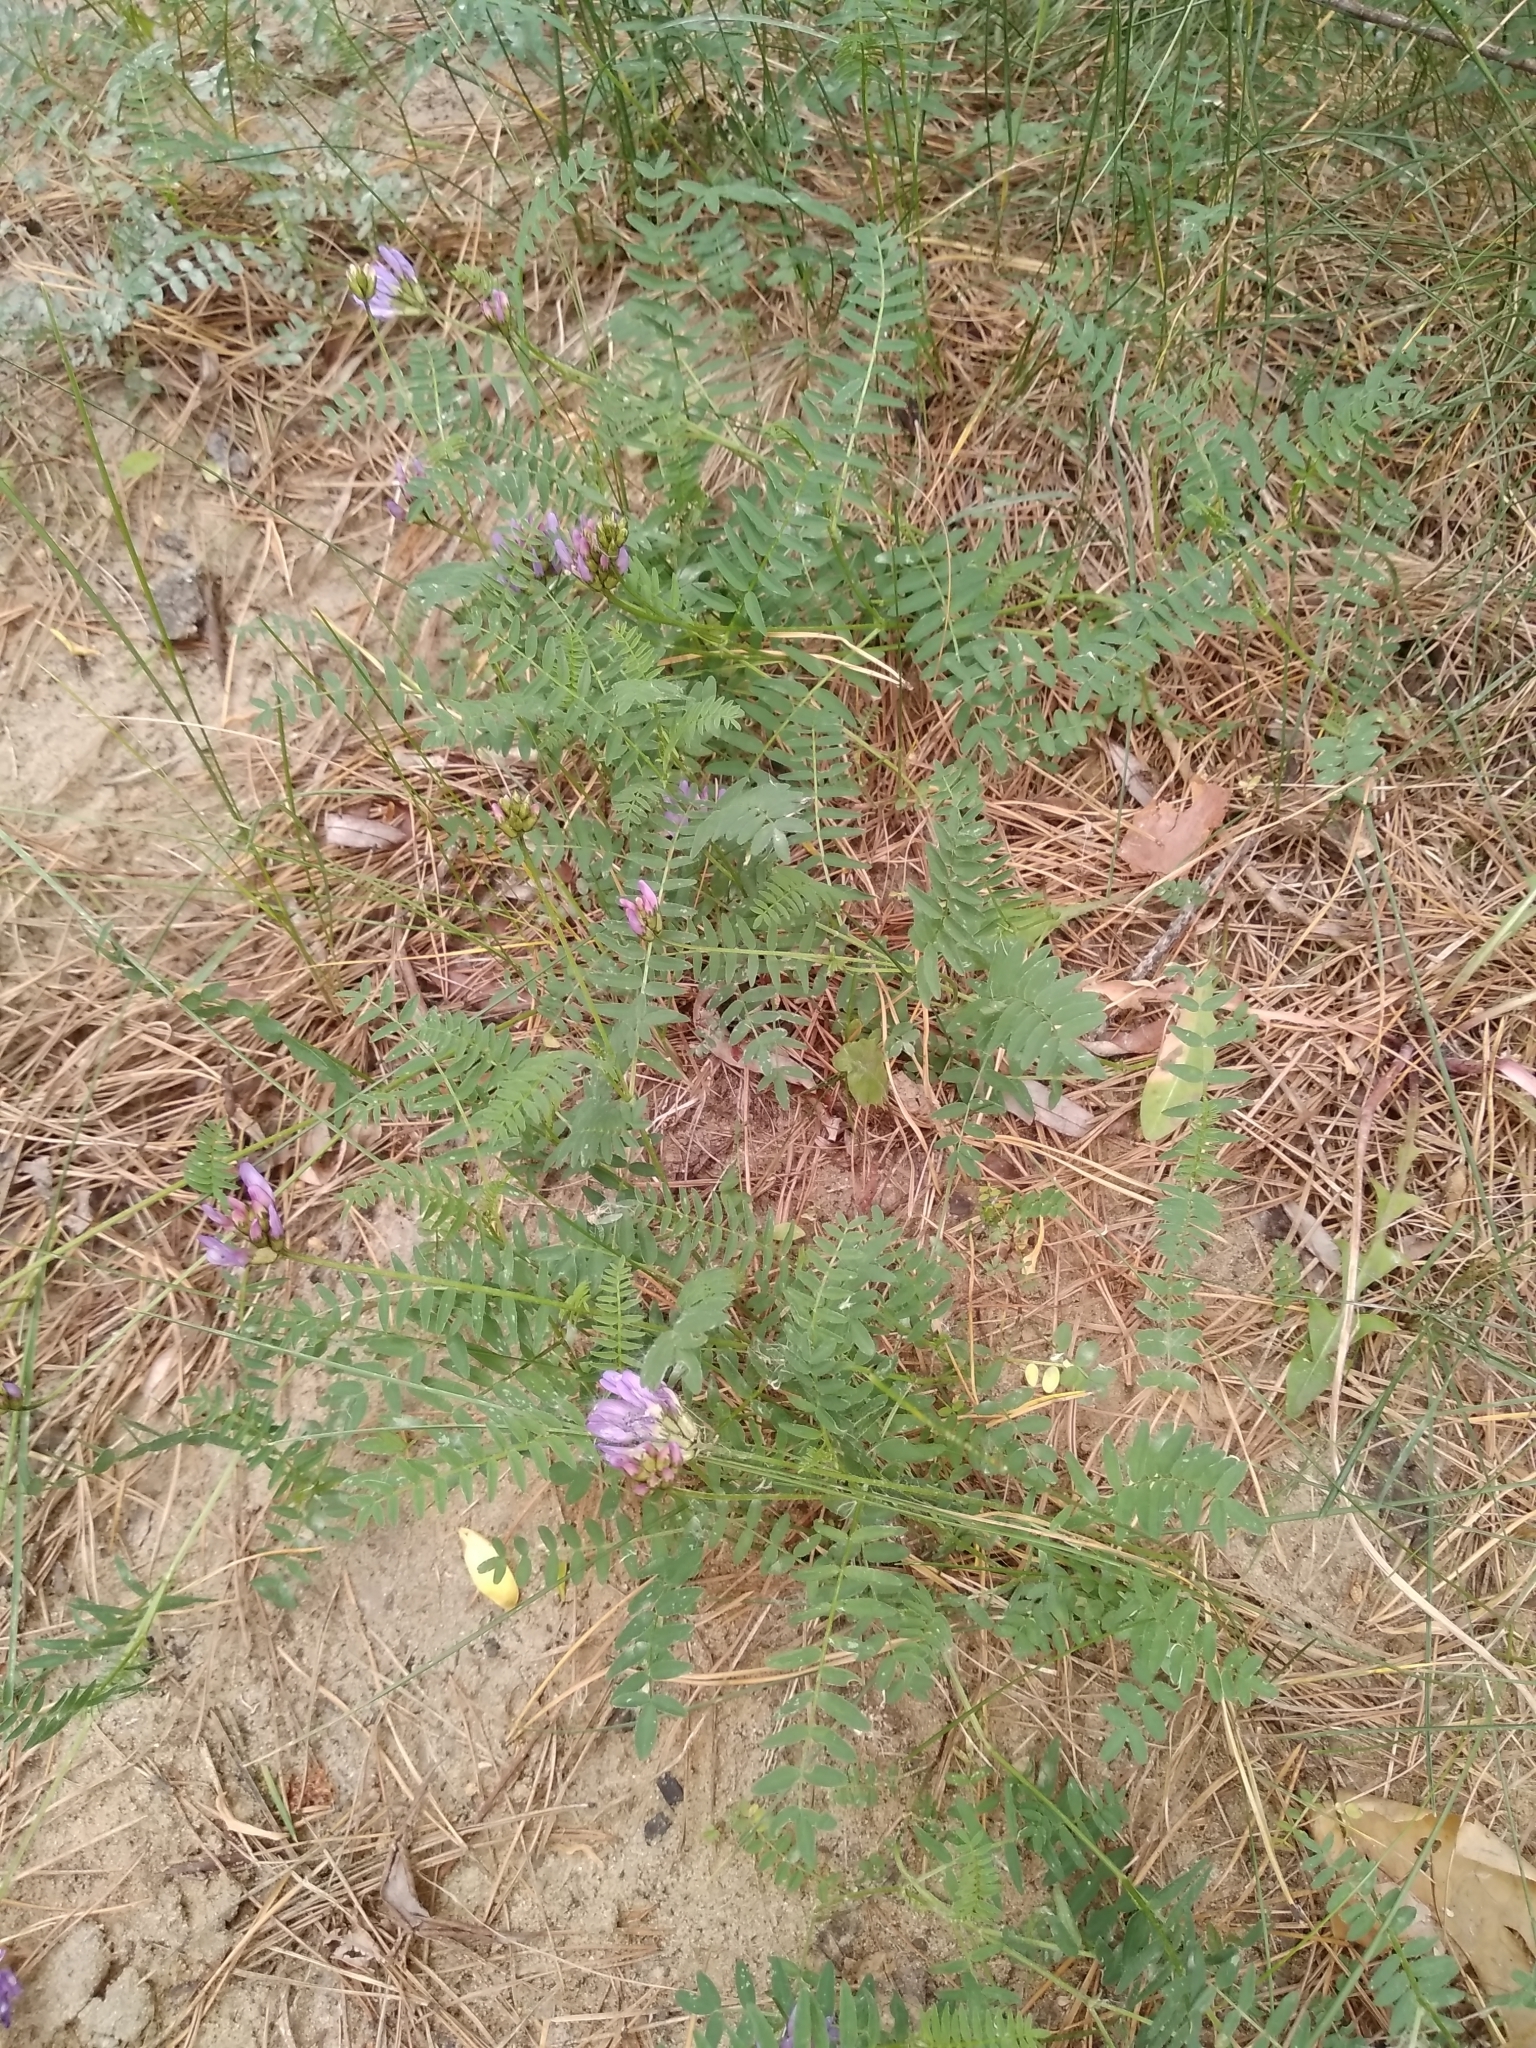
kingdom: Plantae
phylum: Tracheophyta
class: Magnoliopsida
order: Fabales
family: Fabaceae
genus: Astragalus
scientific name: Astragalus danicus
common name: Purple milk-vetch
